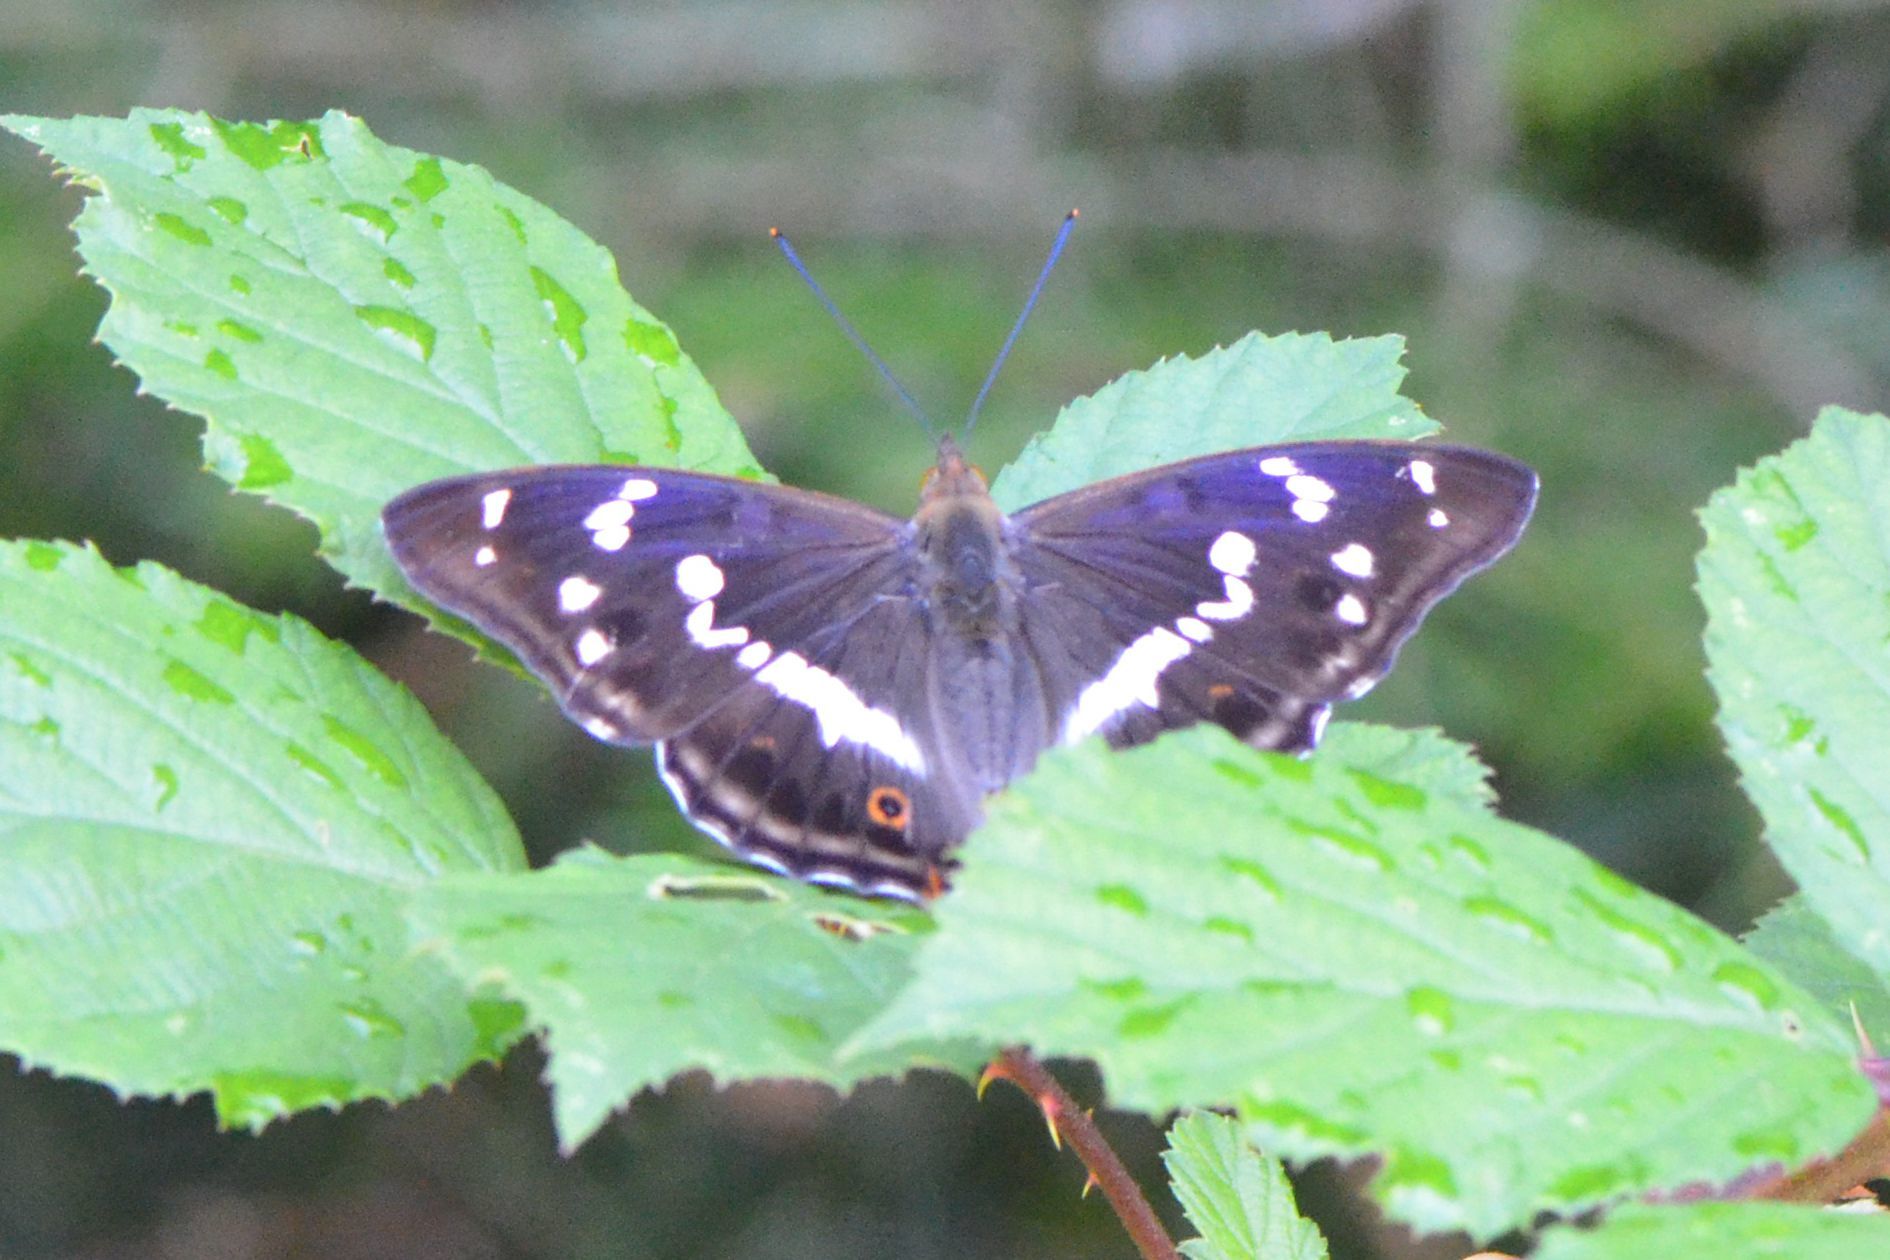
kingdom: Animalia
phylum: Arthropoda
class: Insecta
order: Lepidoptera
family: Nymphalidae
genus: Apatura
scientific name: Apatura iris
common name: Purple emperor
